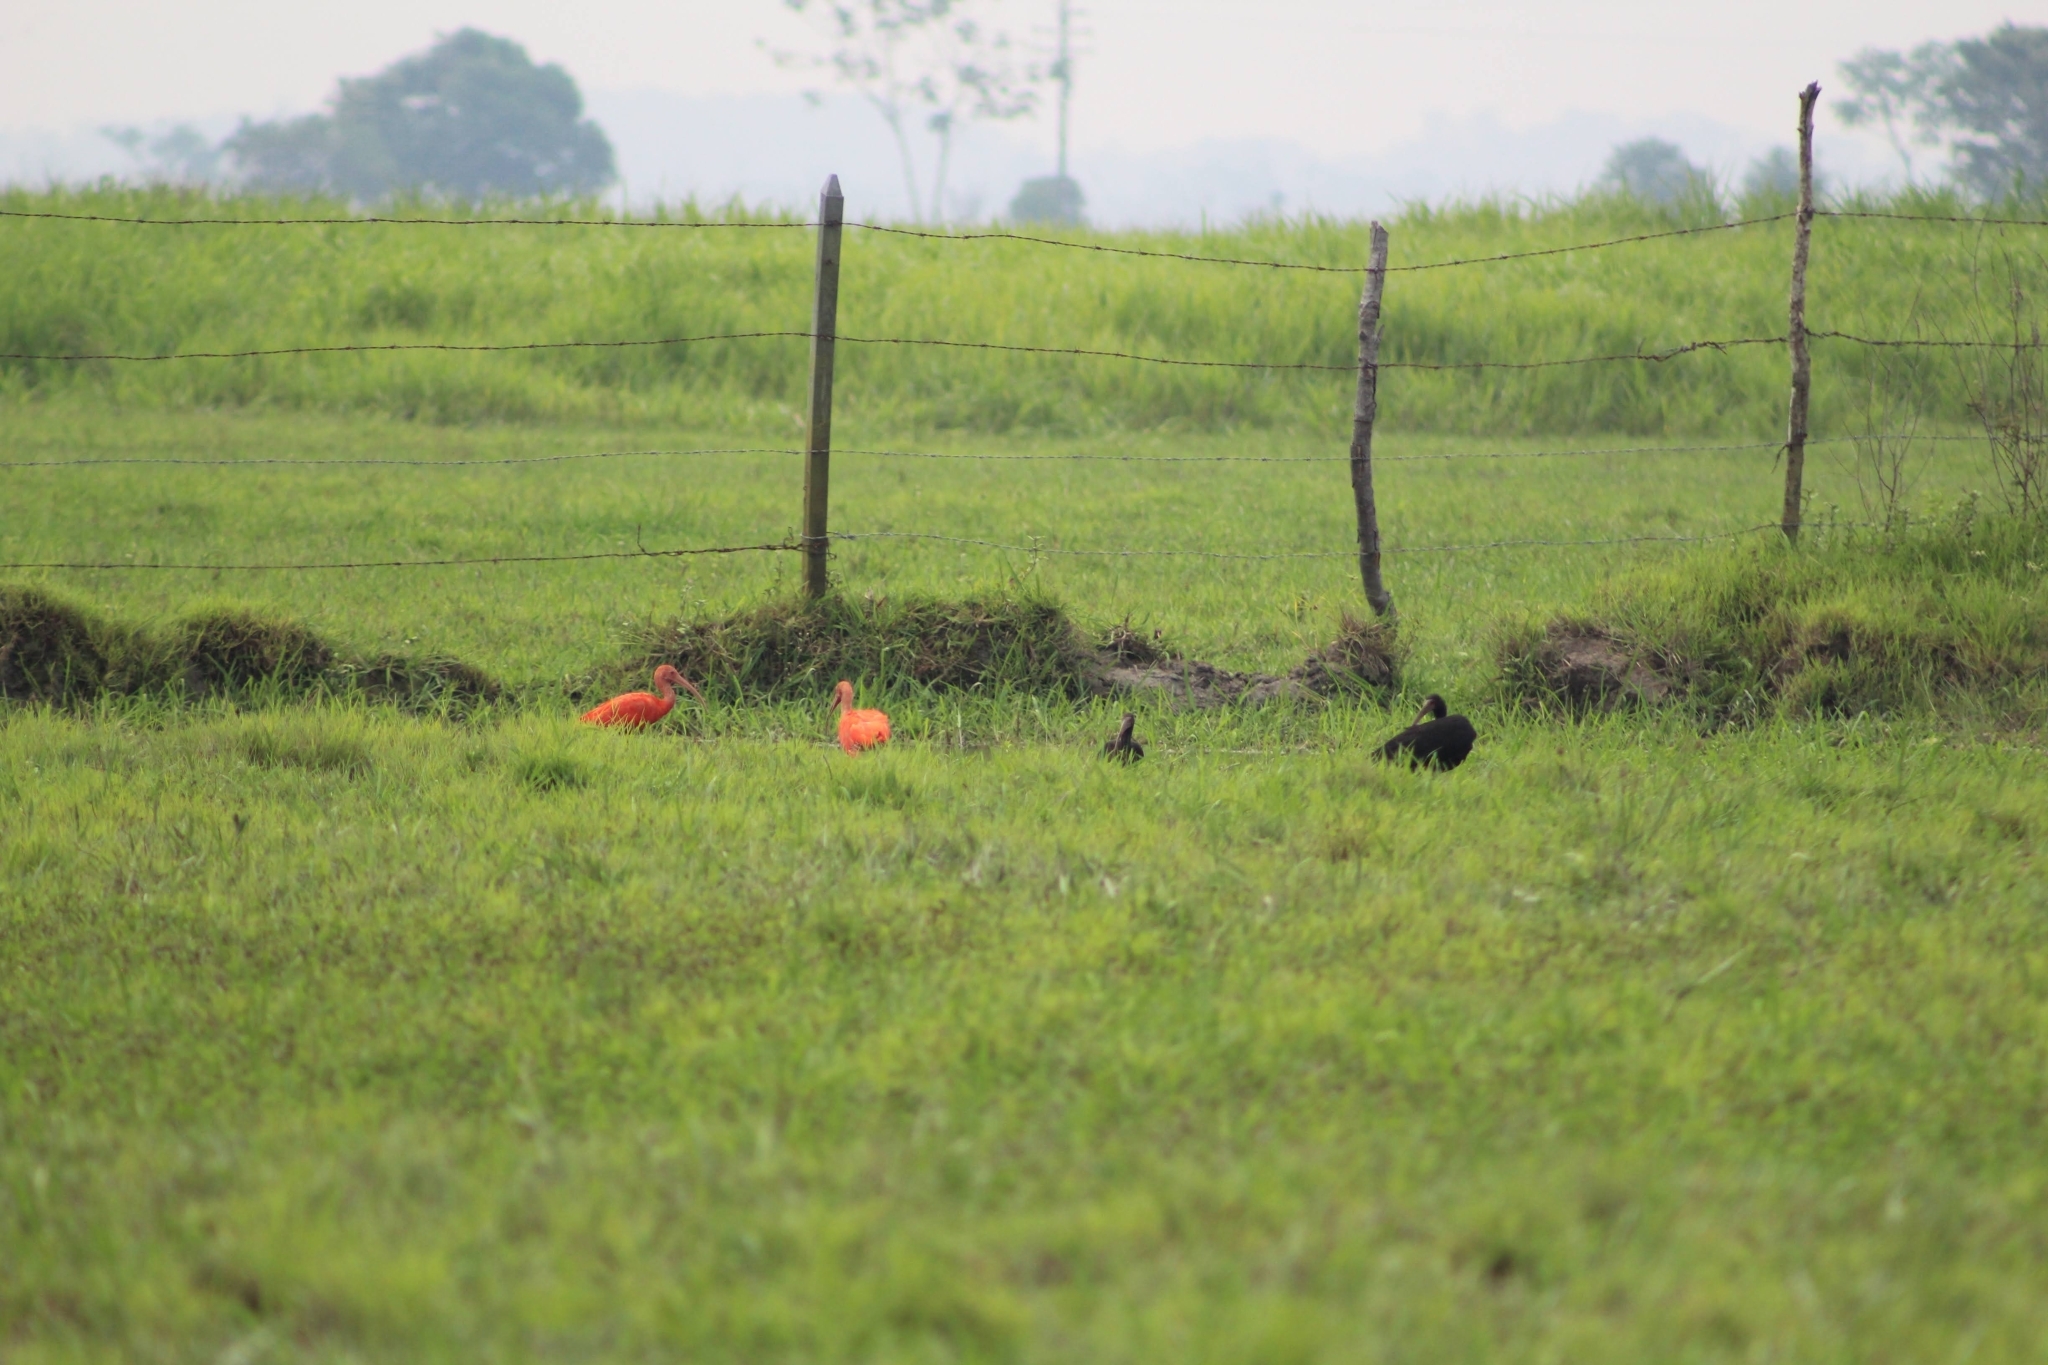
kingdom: Animalia
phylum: Chordata
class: Aves
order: Pelecaniformes
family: Threskiornithidae
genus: Phimosus
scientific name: Phimosus infuscatus
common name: Bare-faced ibis
